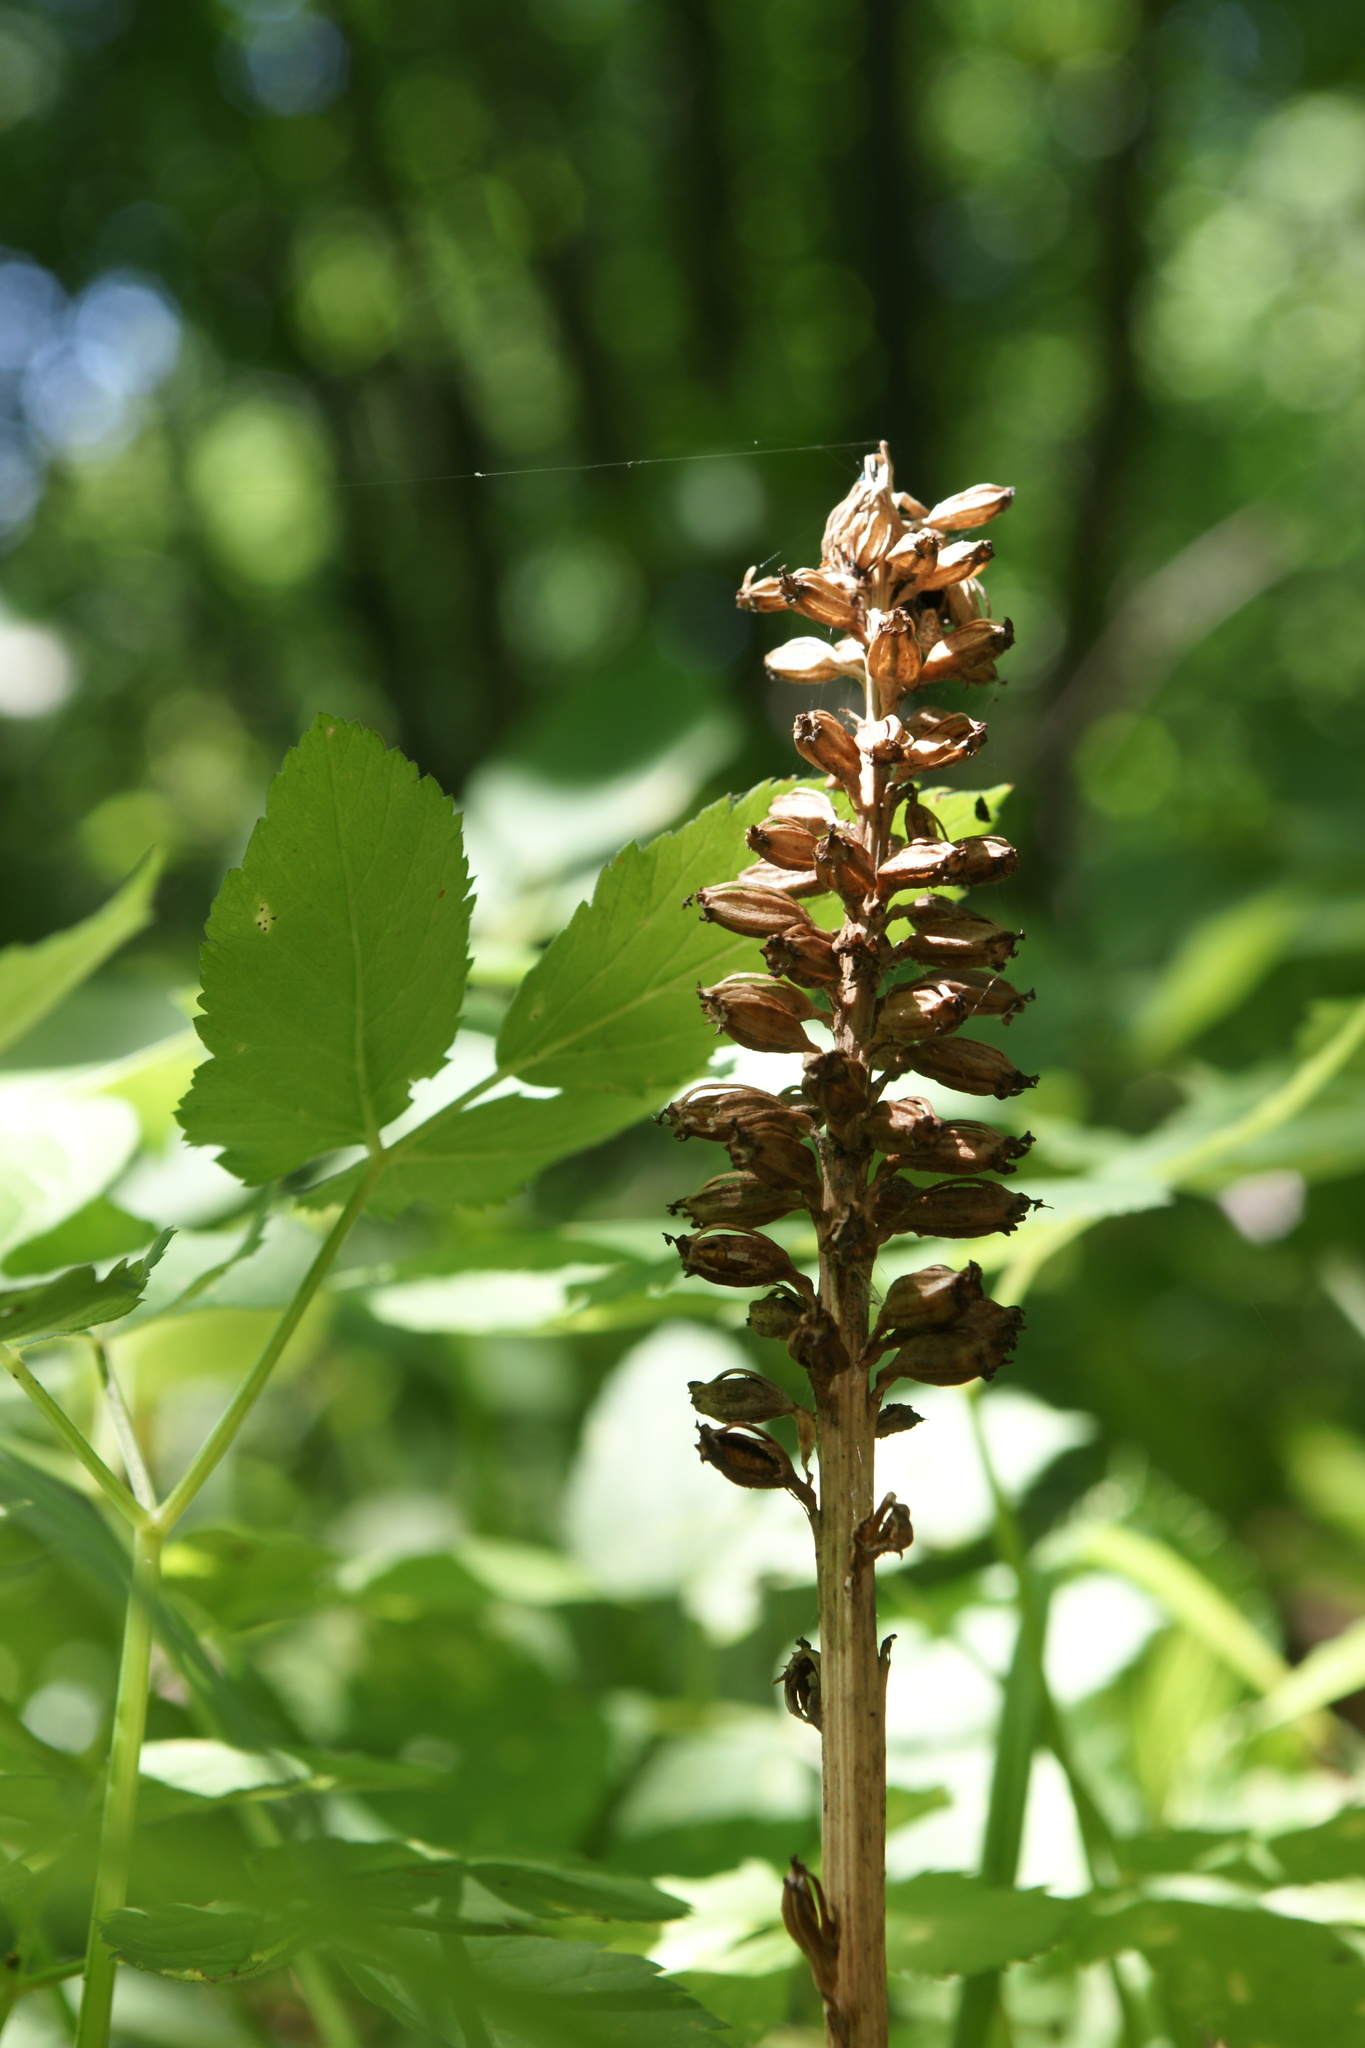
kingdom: Plantae
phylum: Tracheophyta
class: Liliopsida
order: Asparagales
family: Orchidaceae
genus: Neottia
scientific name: Neottia nidus-avis
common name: Bird's-nest orchid
